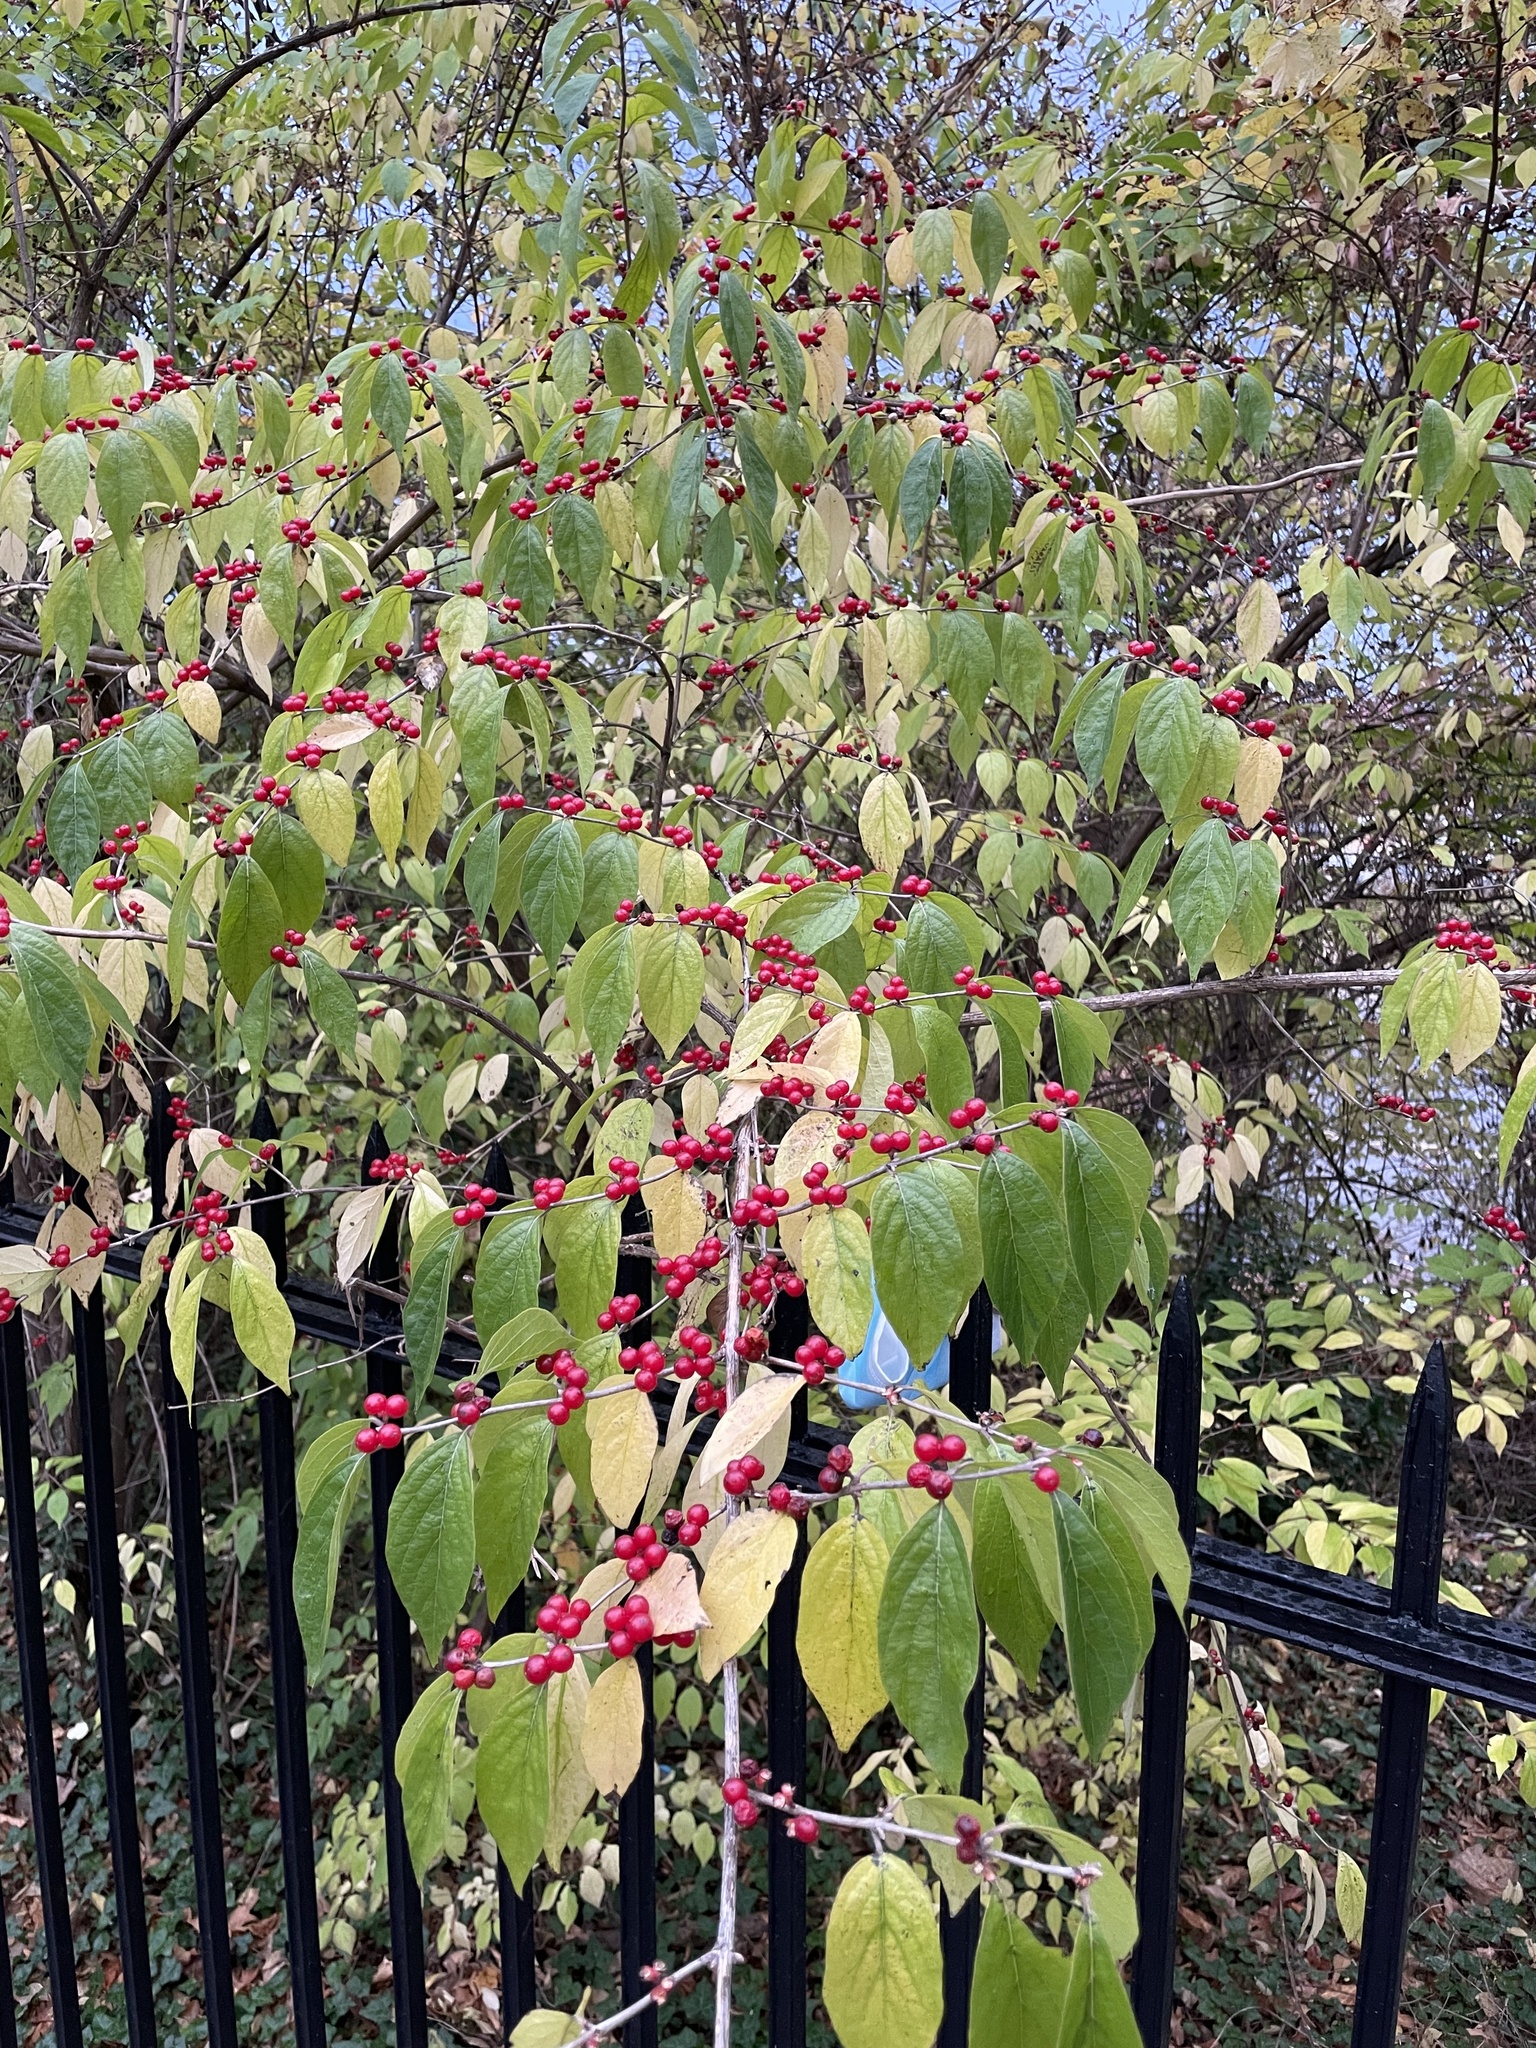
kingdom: Plantae
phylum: Tracheophyta
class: Magnoliopsida
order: Dipsacales
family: Caprifoliaceae
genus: Lonicera
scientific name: Lonicera maackii
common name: Amur honeysuckle
